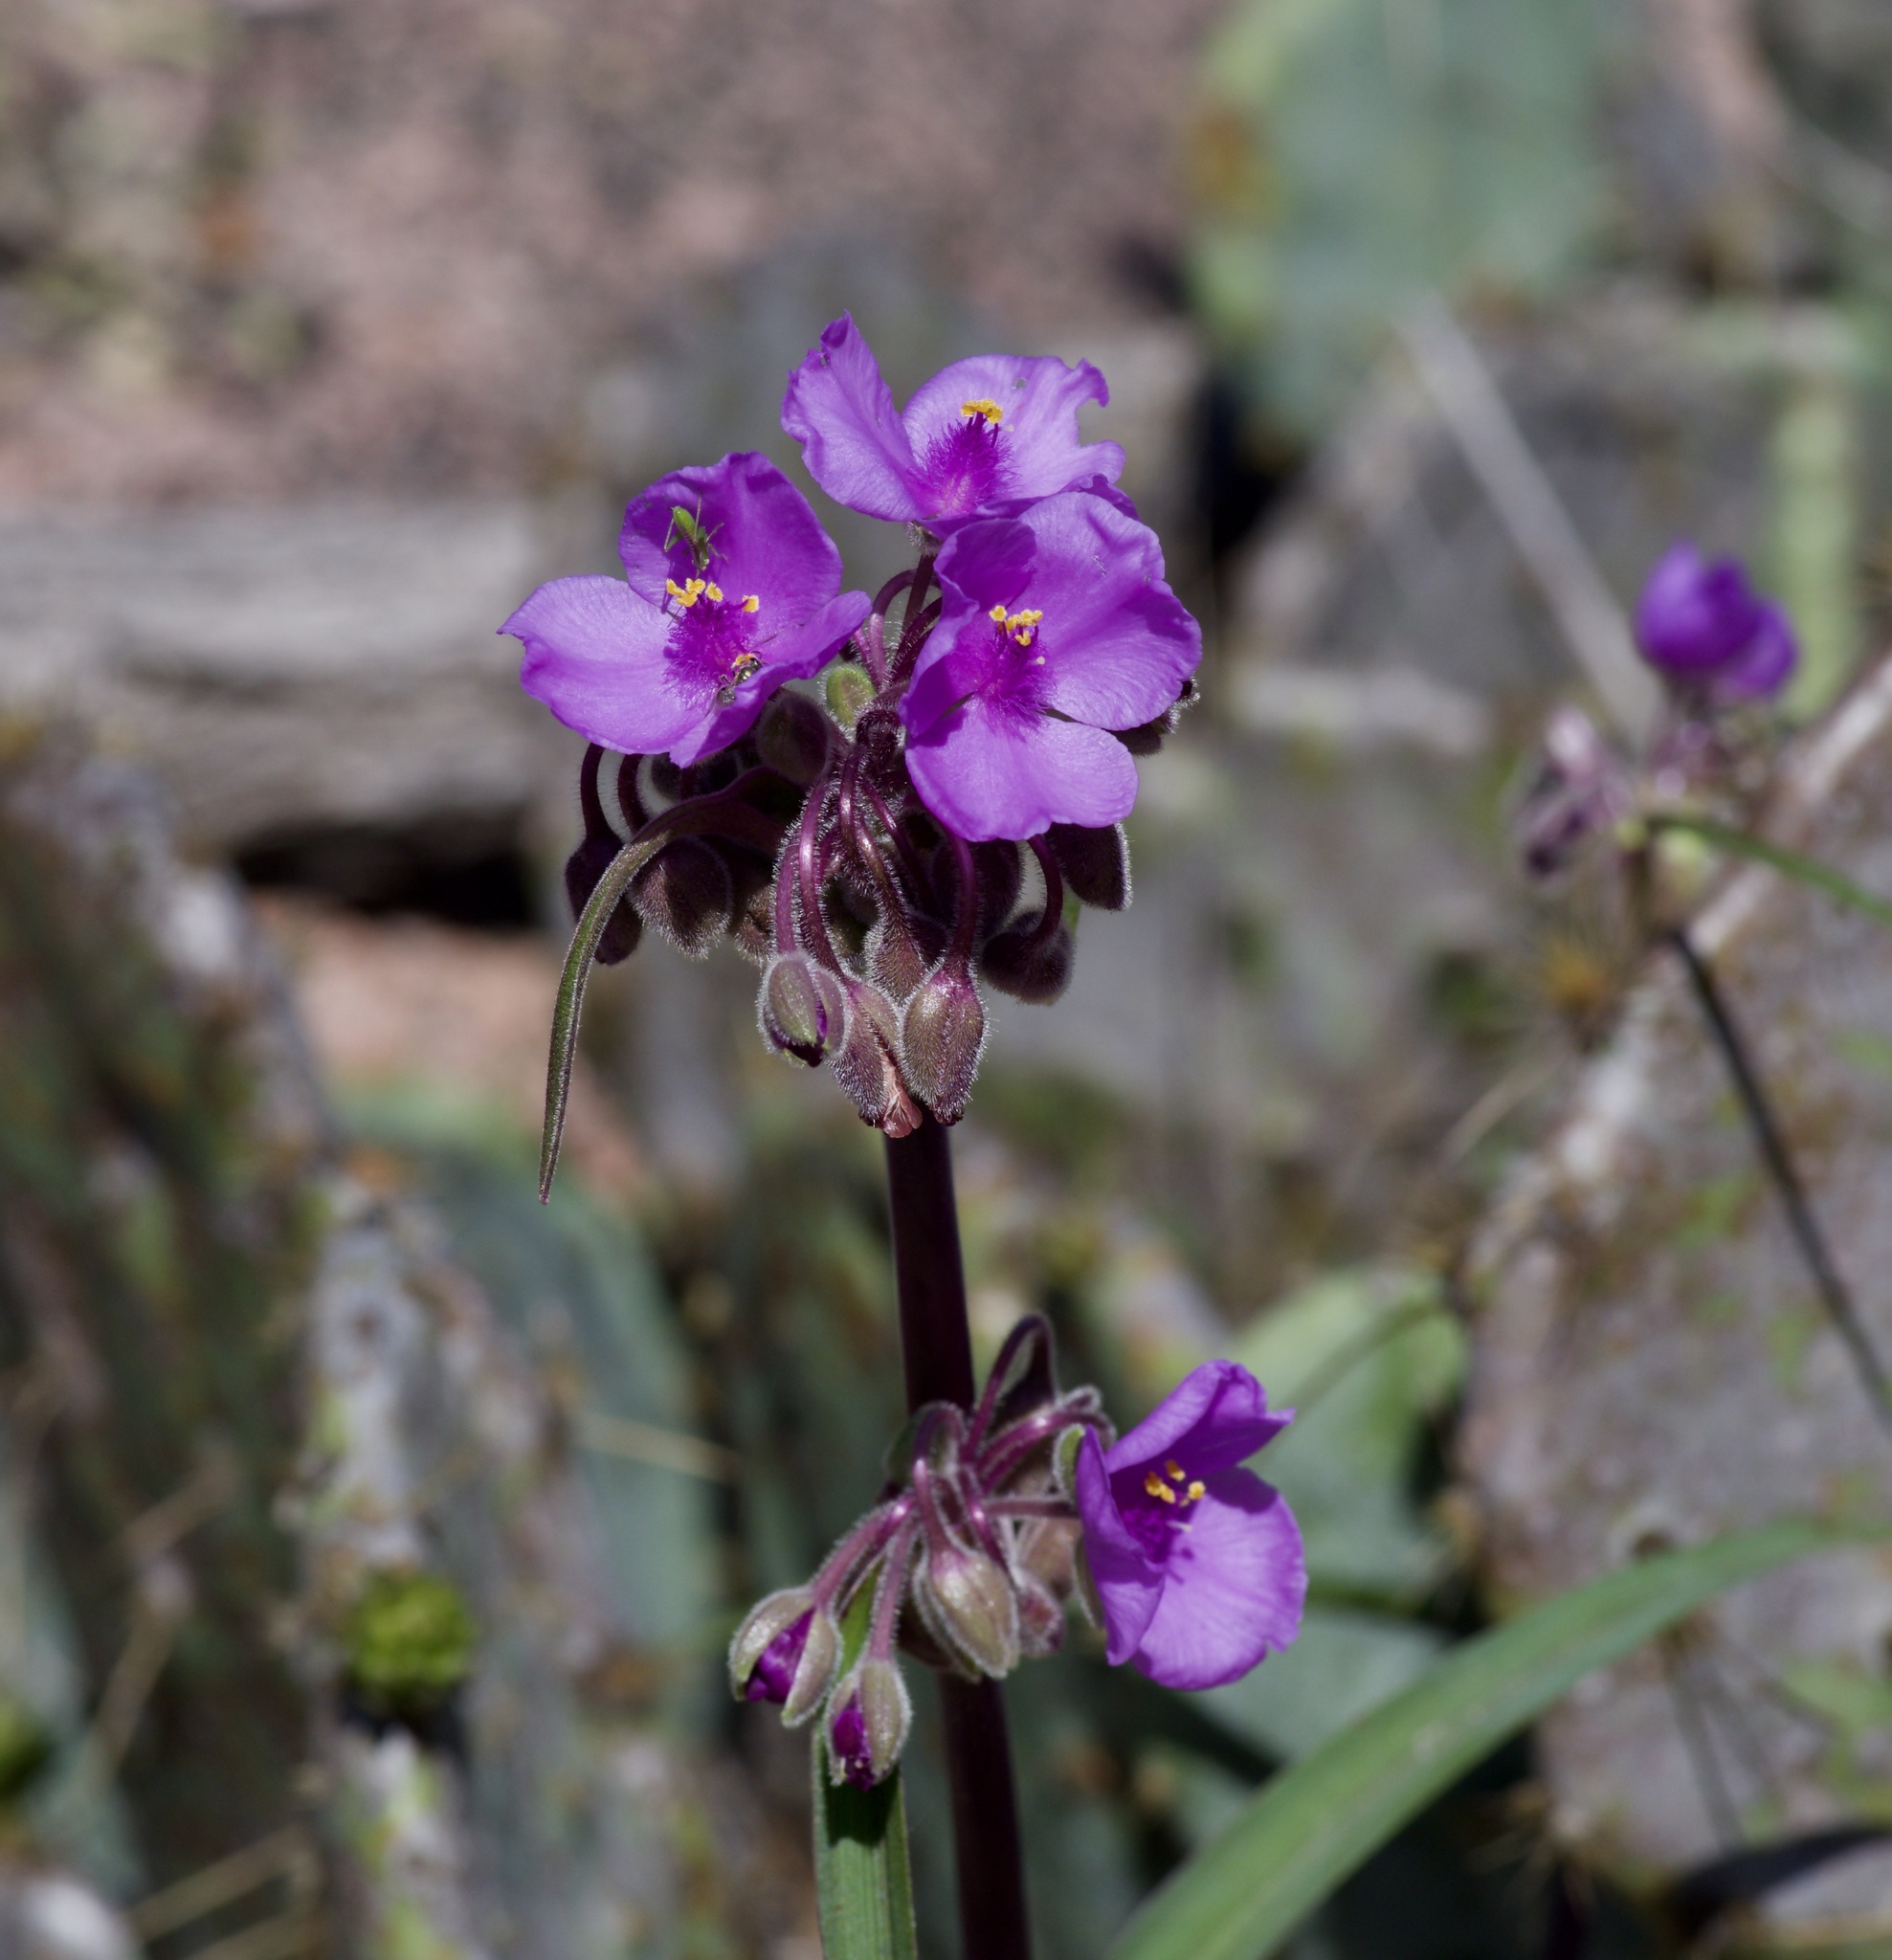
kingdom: Plantae
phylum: Tracheophyta
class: Liliopsida
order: Commelinales
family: Commelinaceae
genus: Tradescantia
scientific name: Tradescantia gigantea
